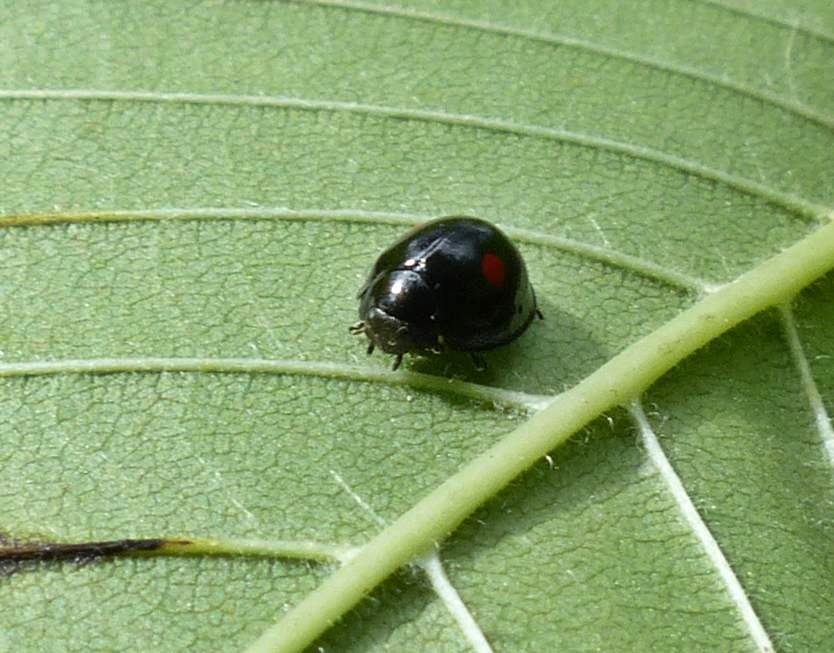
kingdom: Animalia
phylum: Arthropoda
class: Insecta
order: Coleoptera
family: Coccinellidae
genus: Chilocorus
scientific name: Chilocorus stigma
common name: Twicestabbed lady beetle
